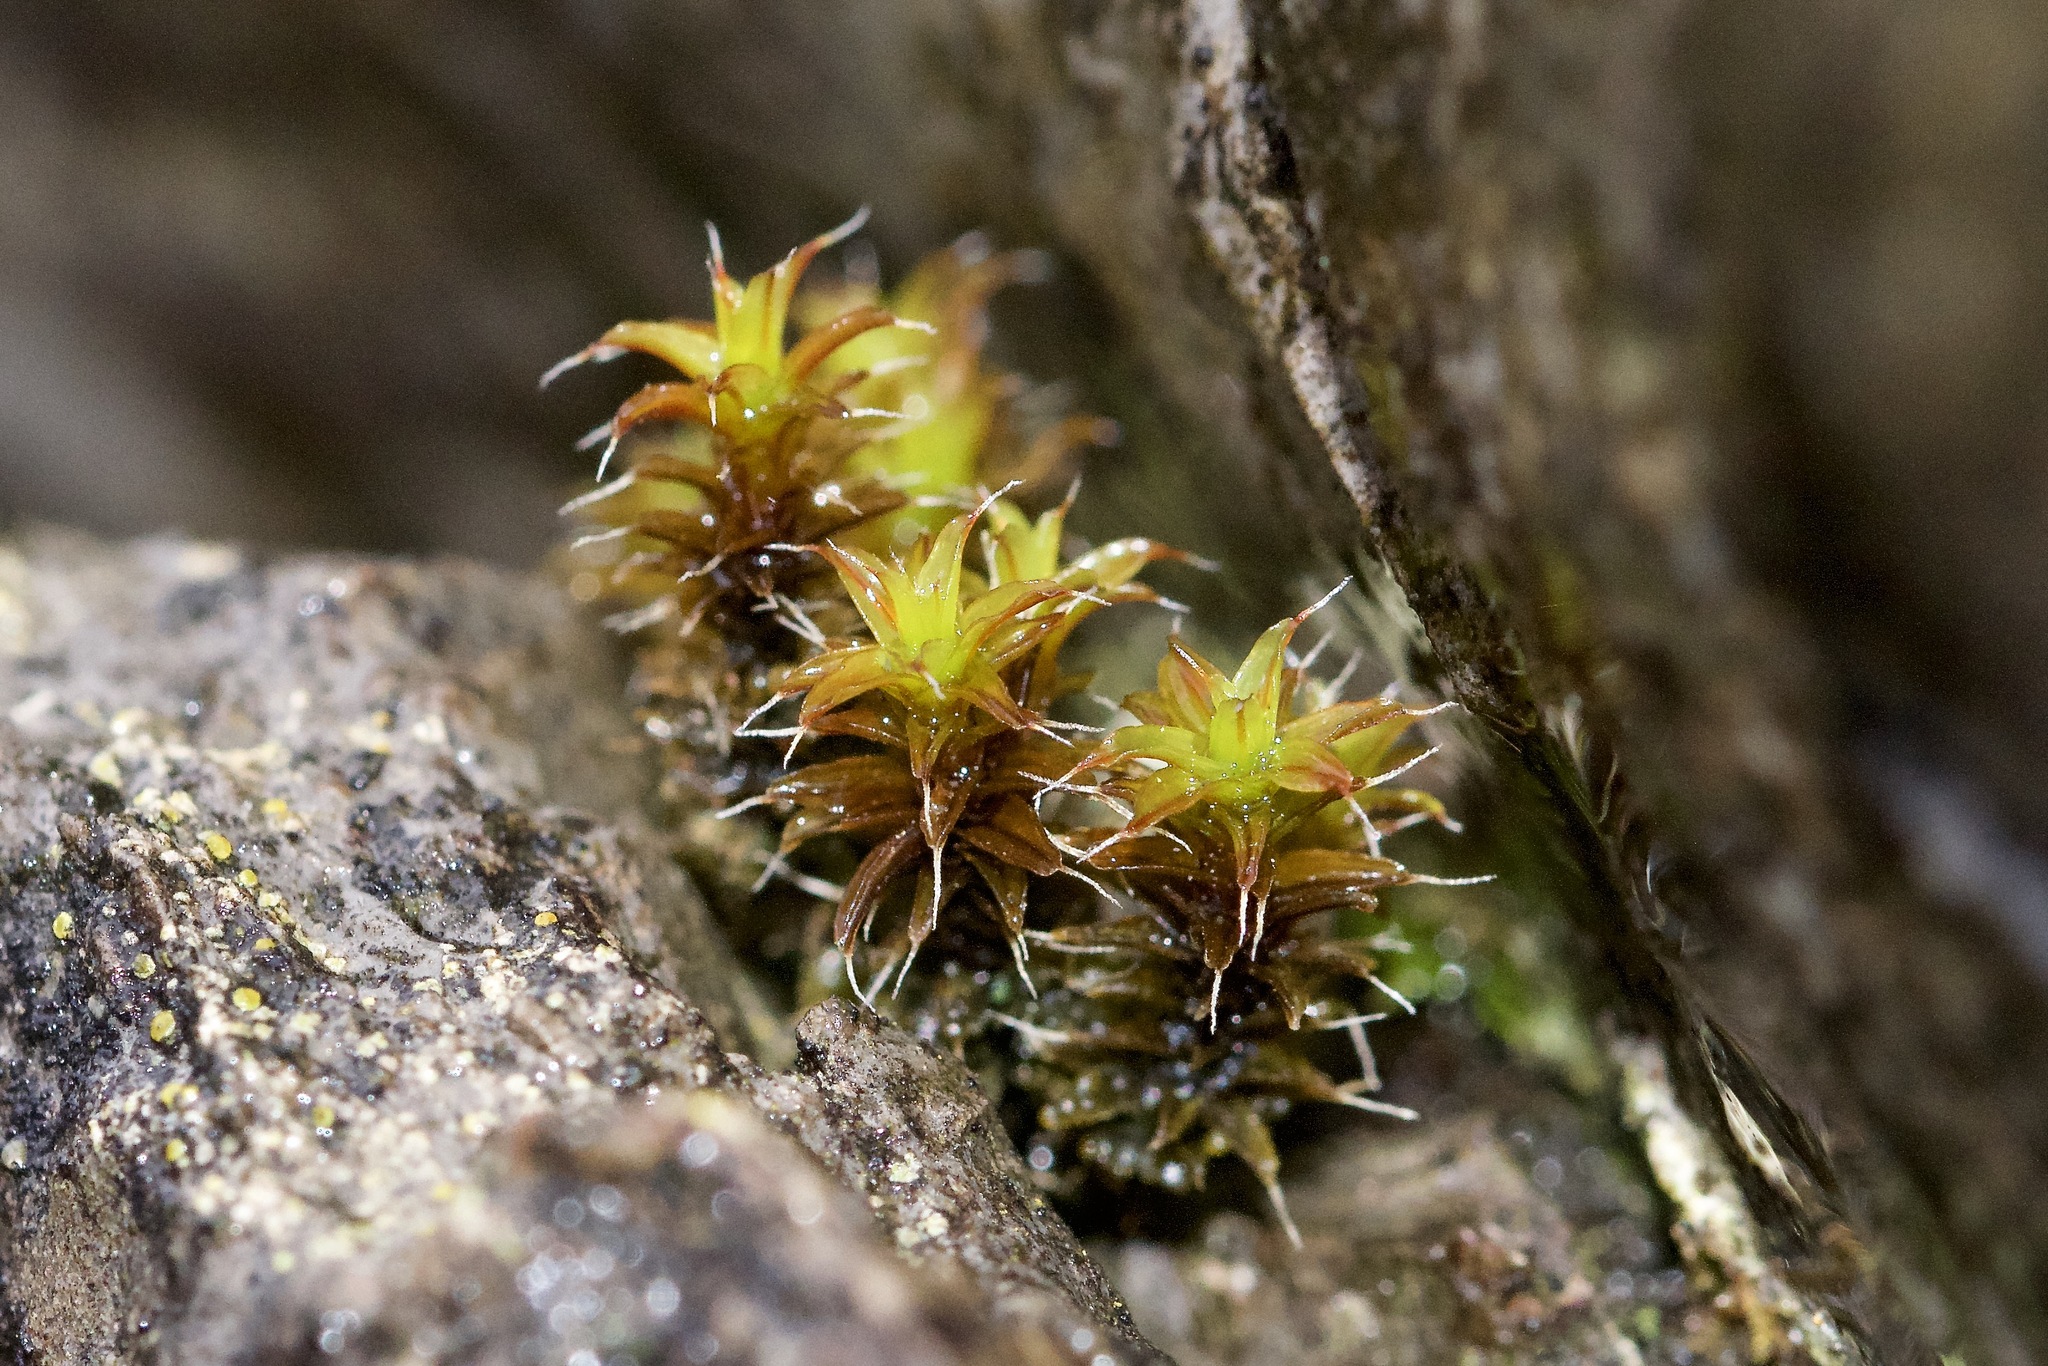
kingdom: Plantae
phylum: Bryophyta
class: Bryopsida
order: Pottiales
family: Pottiaceae
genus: Syntrichia
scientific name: Syntrichia ruralis
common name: Sidewalk screw moss
